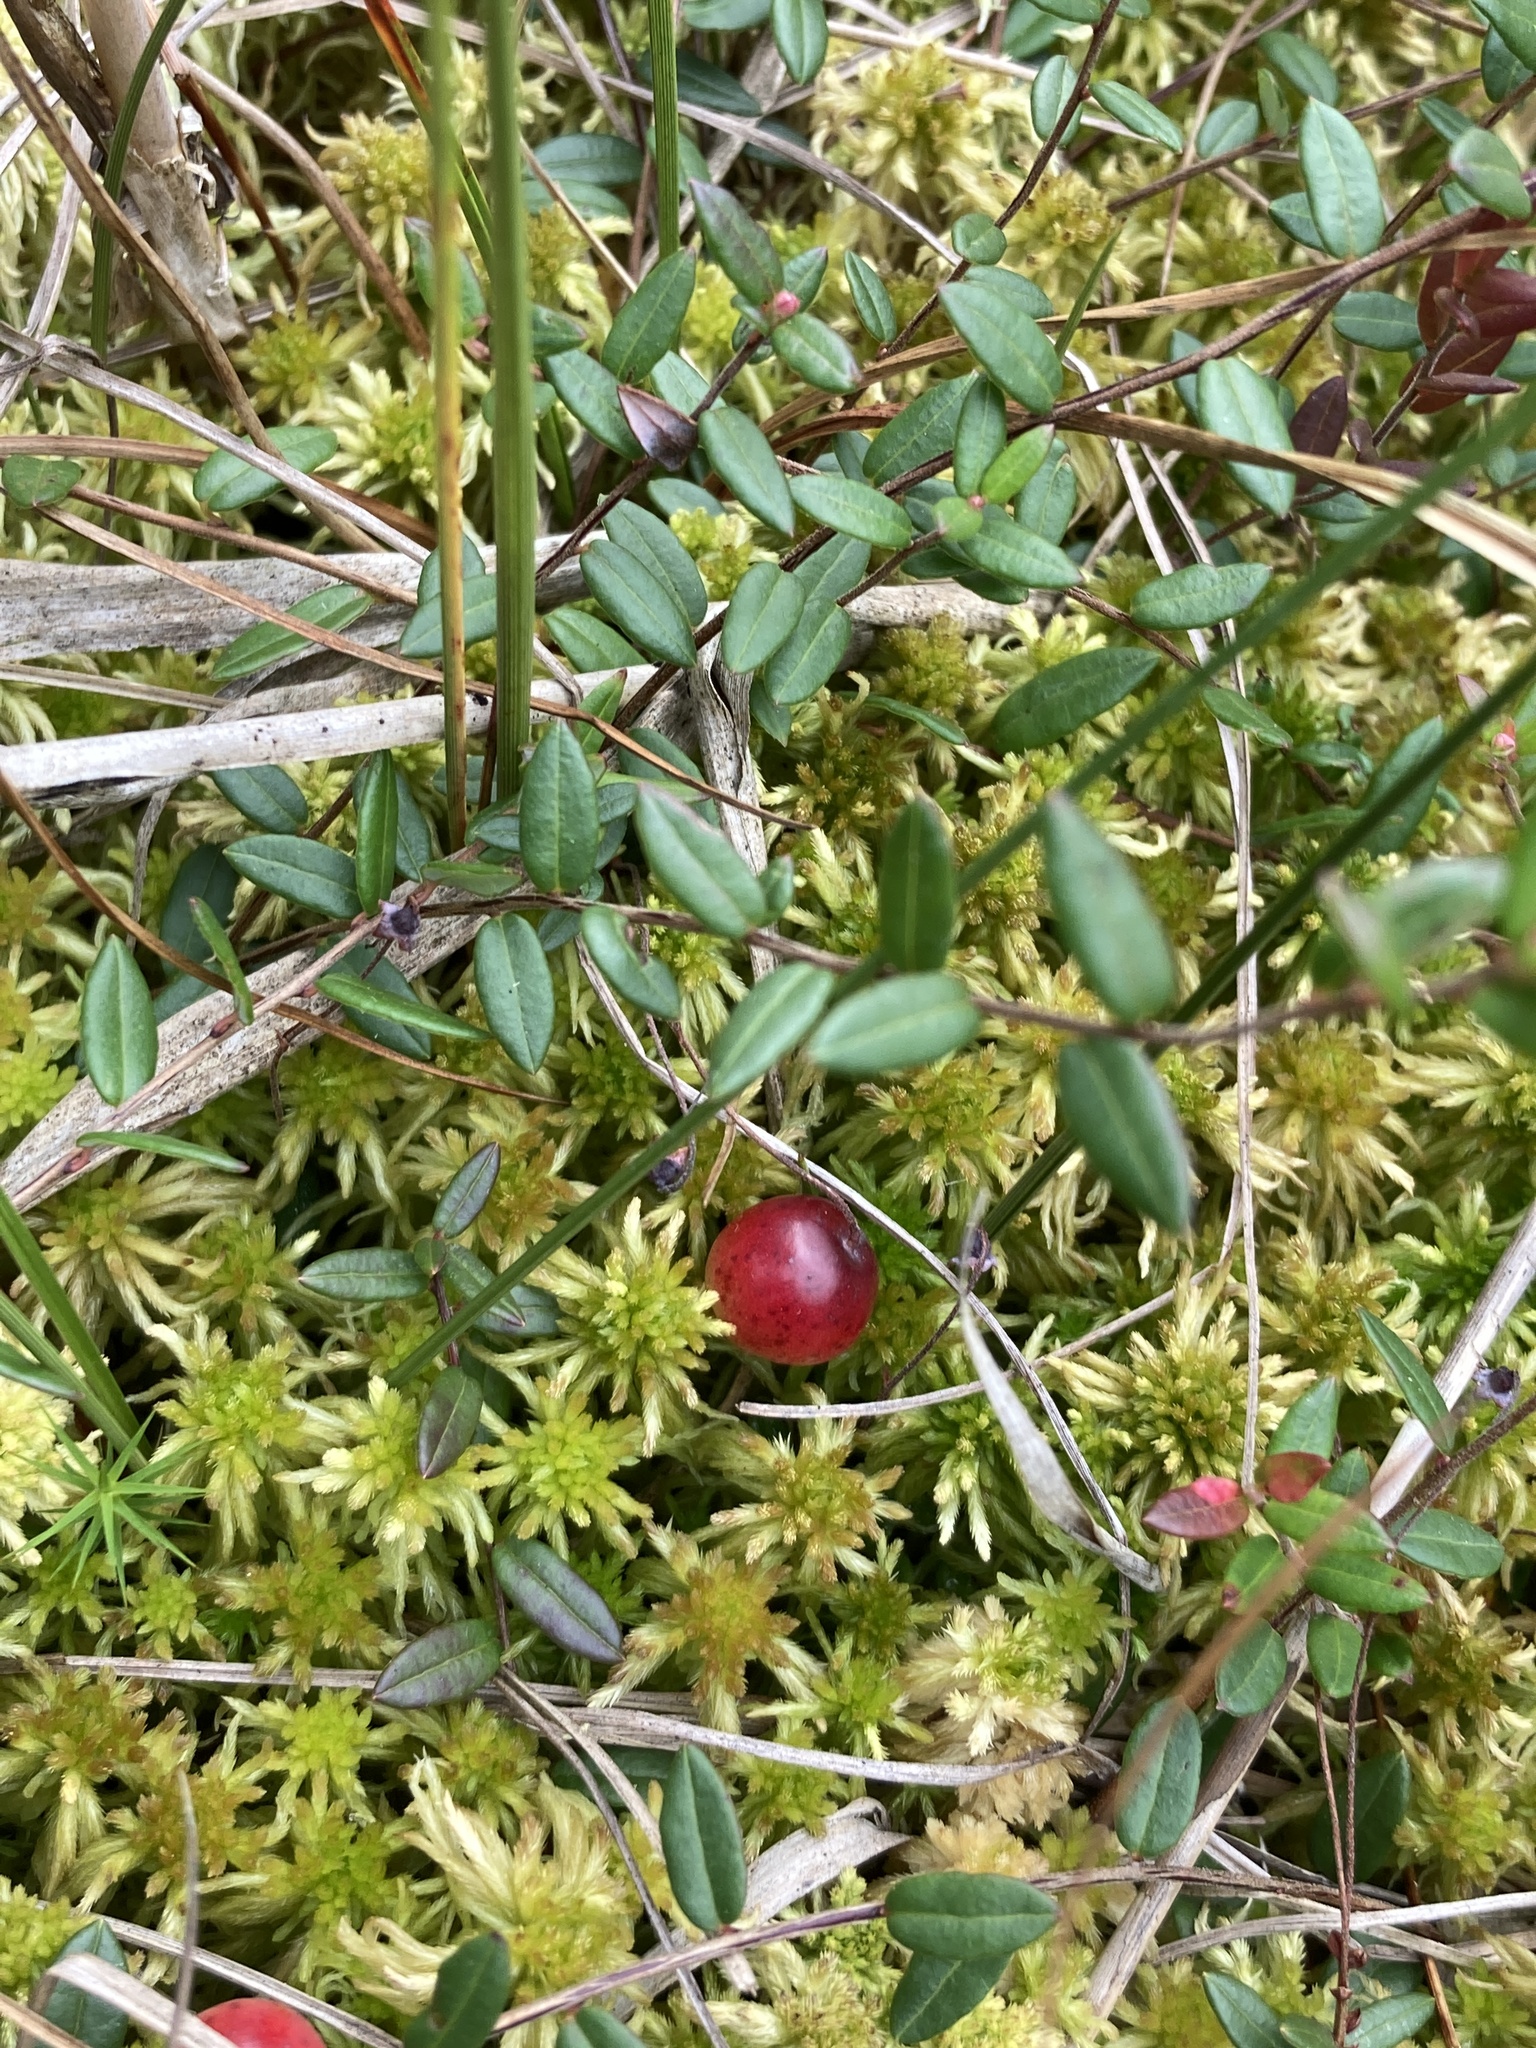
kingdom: Plantae
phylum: Tracheophyta
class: Magnoliopsida
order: Ericales
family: Ericaceae
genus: Vaccinium
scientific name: Vaccinium oxycoccos
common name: Cranberry
